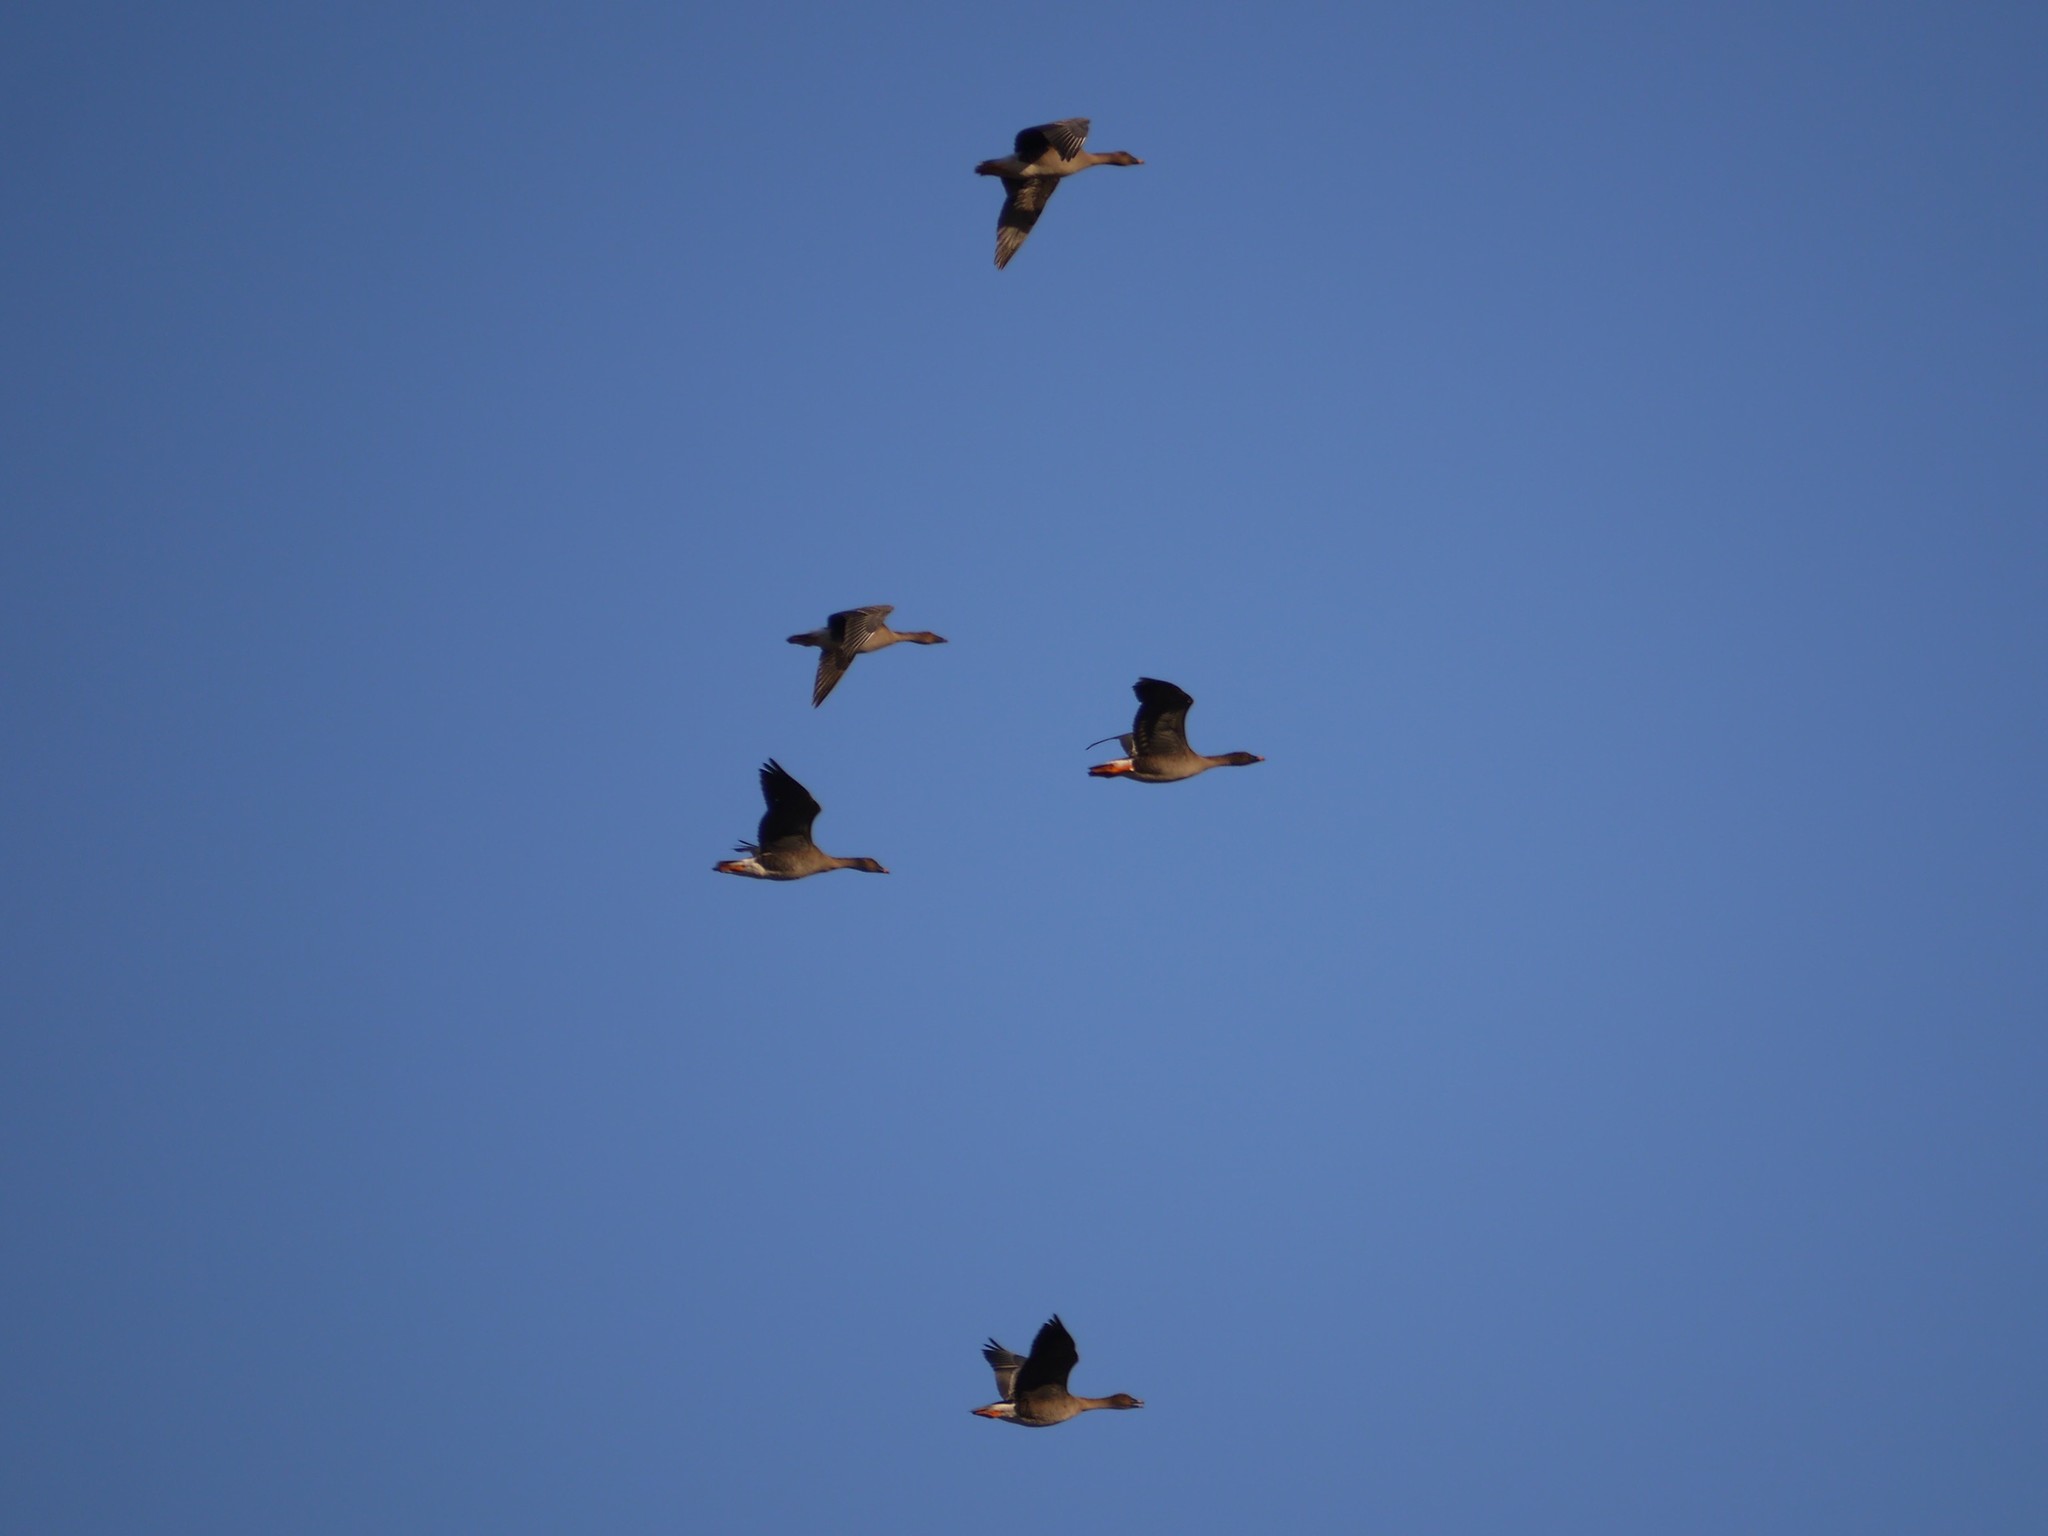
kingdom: Animalia
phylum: Chordata
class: Aves
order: Anseriformes
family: Anatidae
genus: Anser
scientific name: Anser serrirostris
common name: Tundra bean goose
